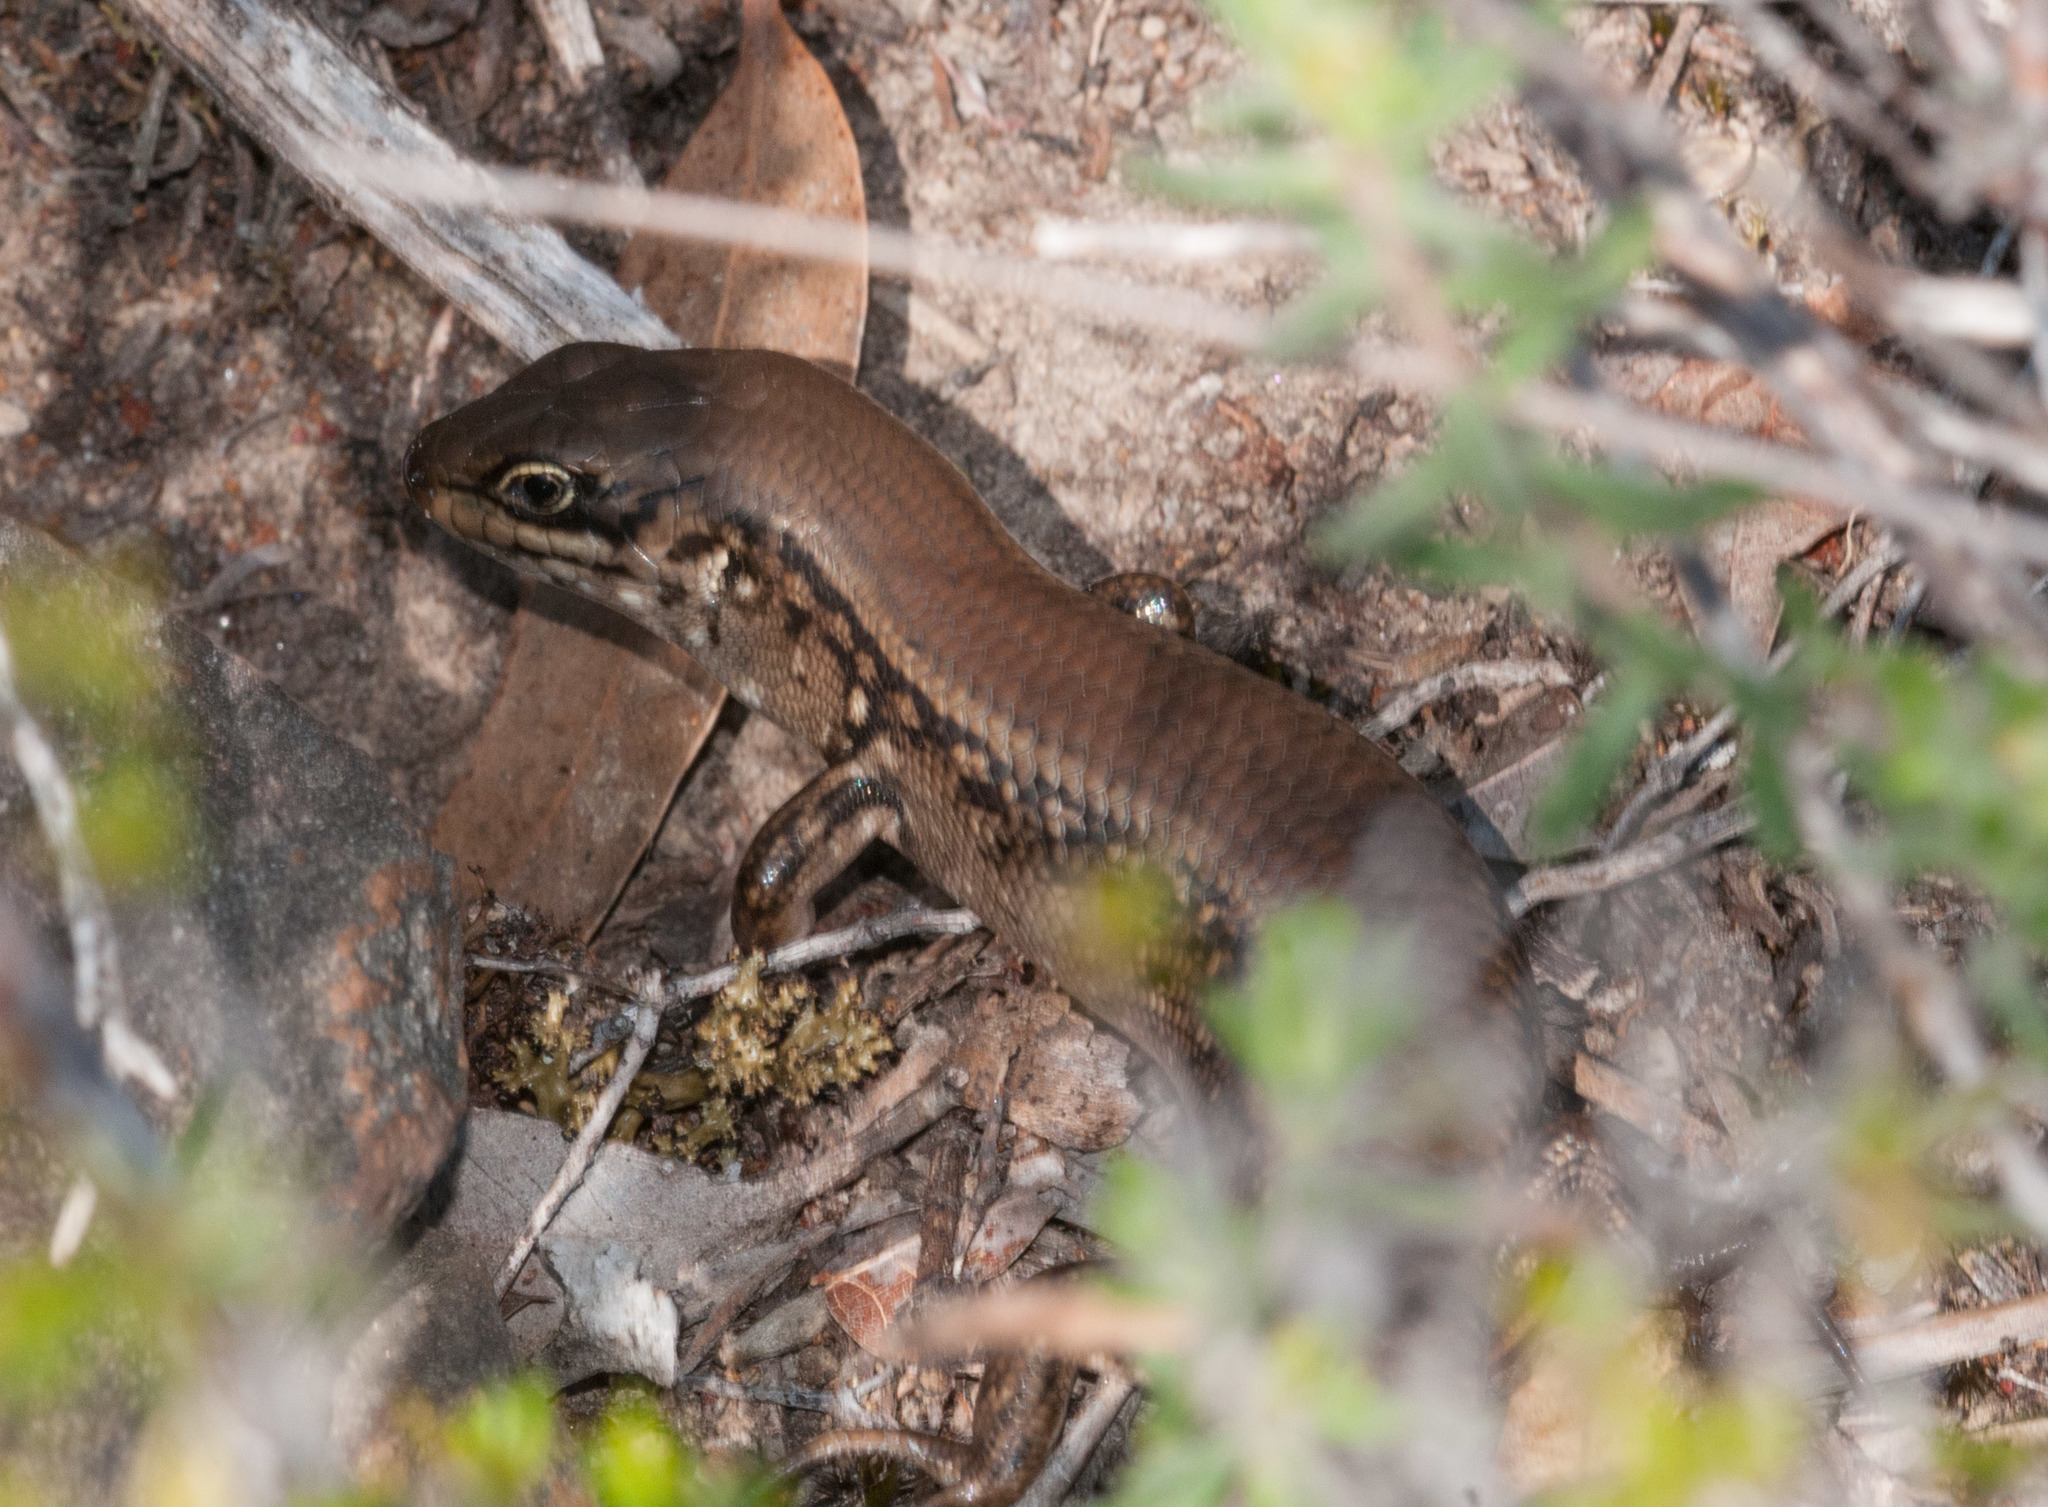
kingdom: Animalia
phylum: Chordata
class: Squamata
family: Scincidae
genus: Liopholis
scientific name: Liopholis whitii
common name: White's rock-skink
